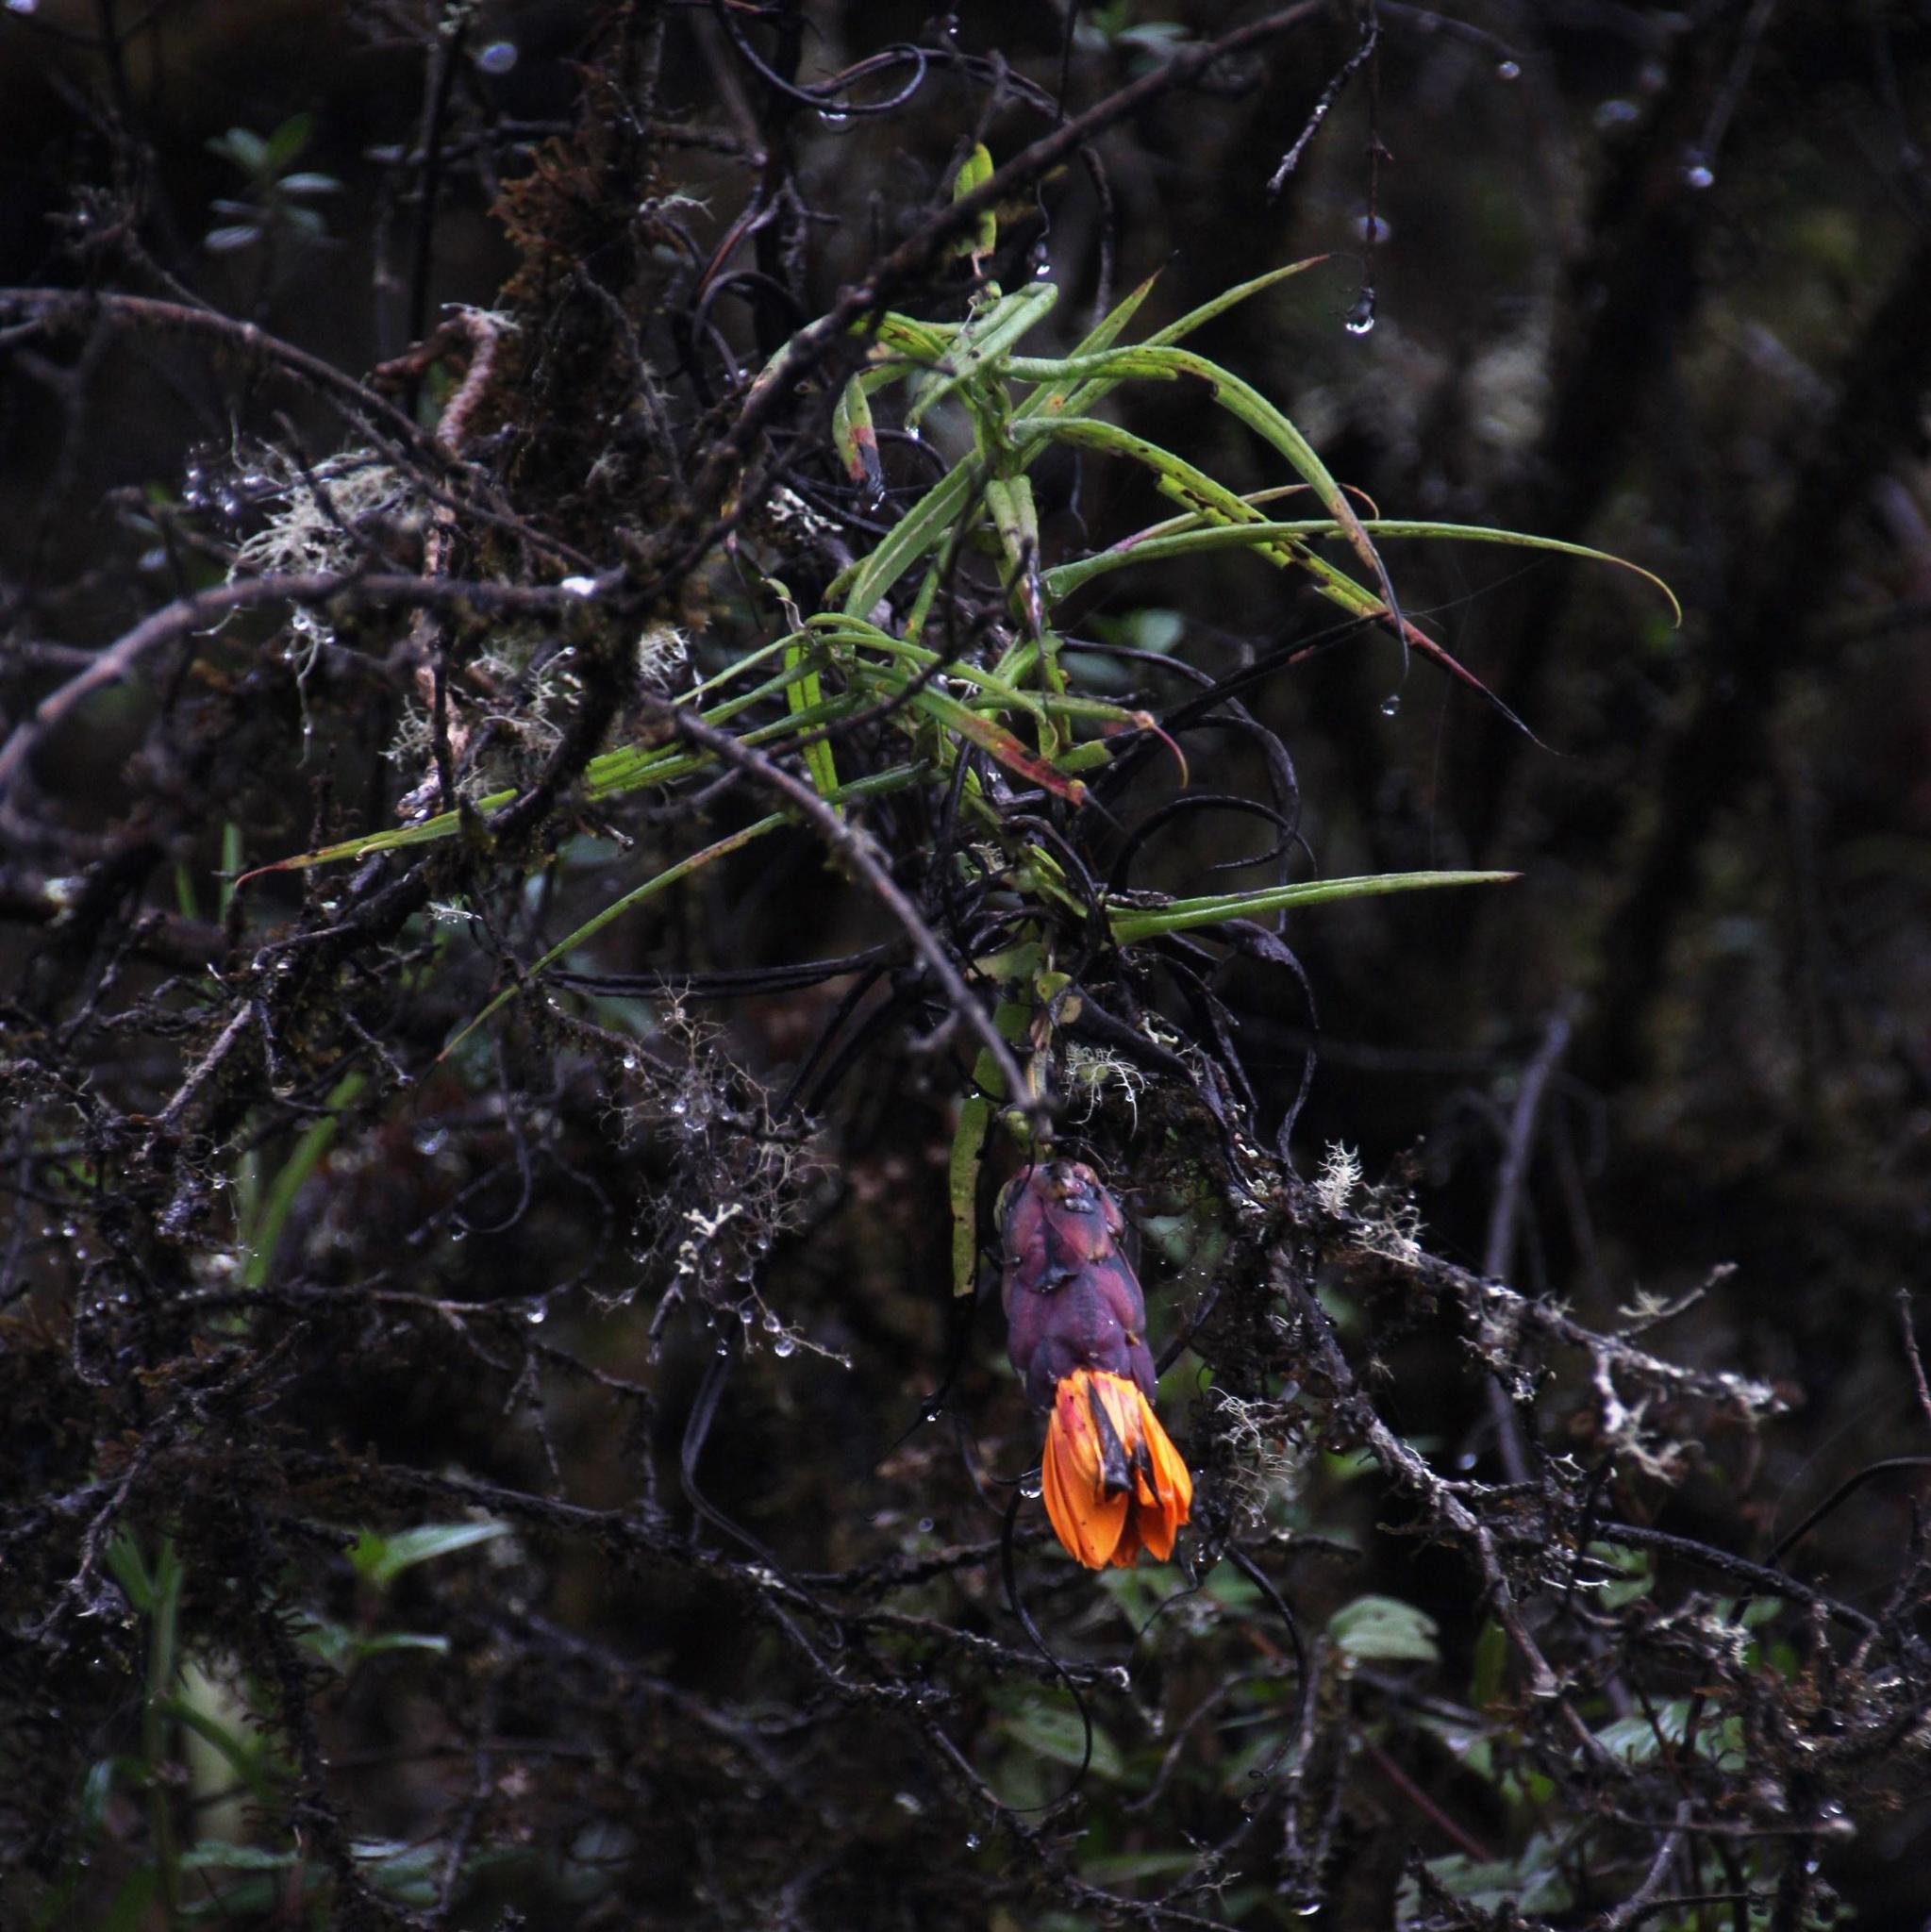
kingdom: Plantae
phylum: Tracheophyta
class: Magnoliopsida
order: Asterales
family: Asteraceae
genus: Mutisia
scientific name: Mutisia cochabambensis
